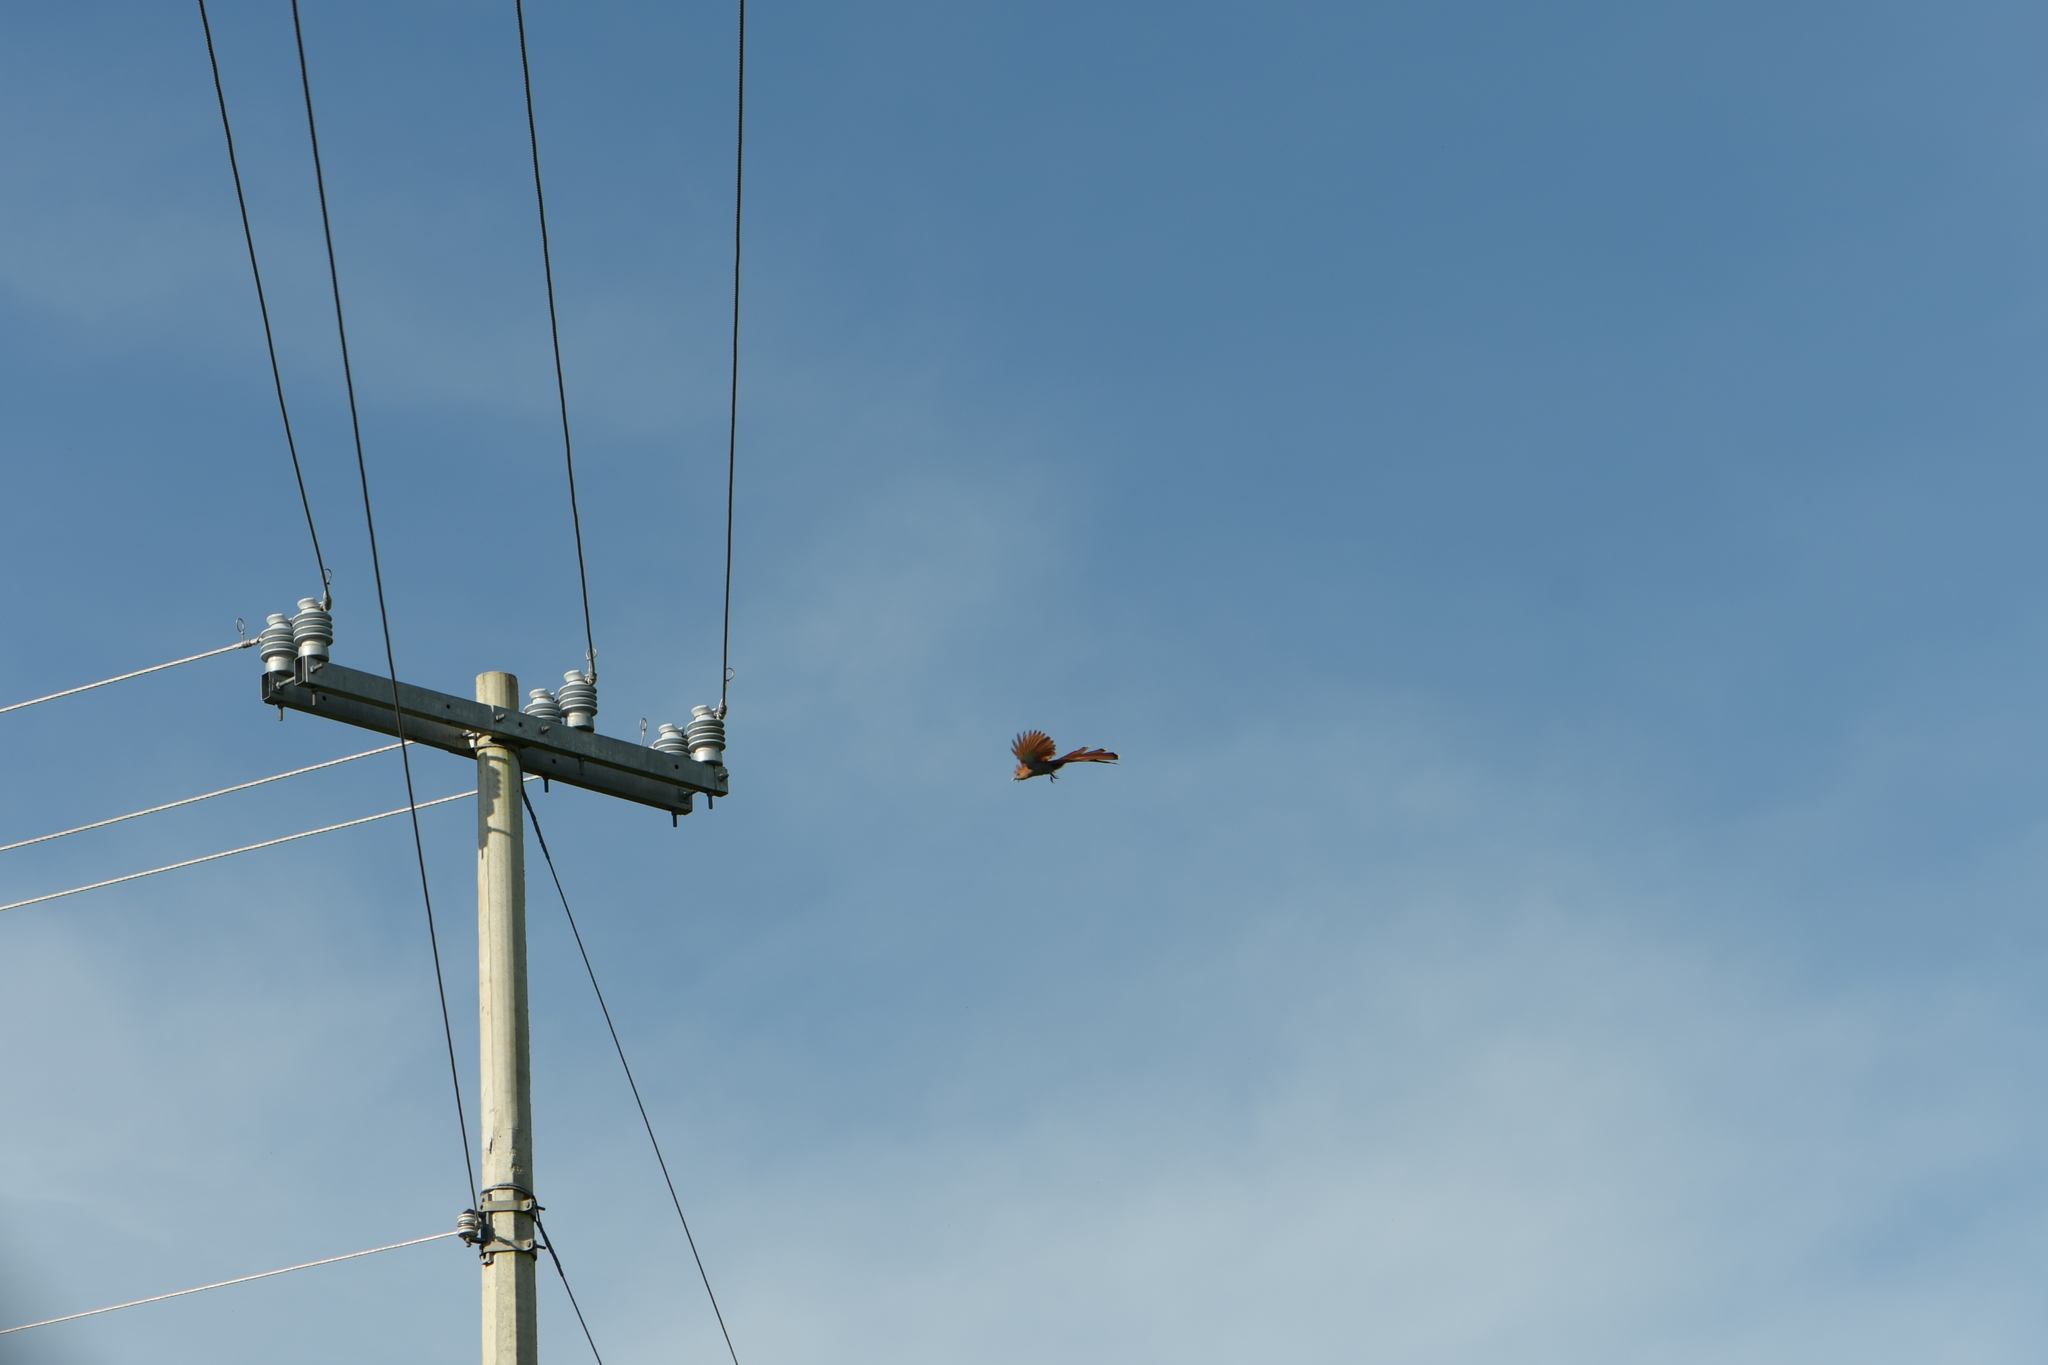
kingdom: Animalia
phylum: Chordata
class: Aves
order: Cuculiformes
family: Cuculidae
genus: Piaya
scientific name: Piaya cayana
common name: Squirrel cuckoo
